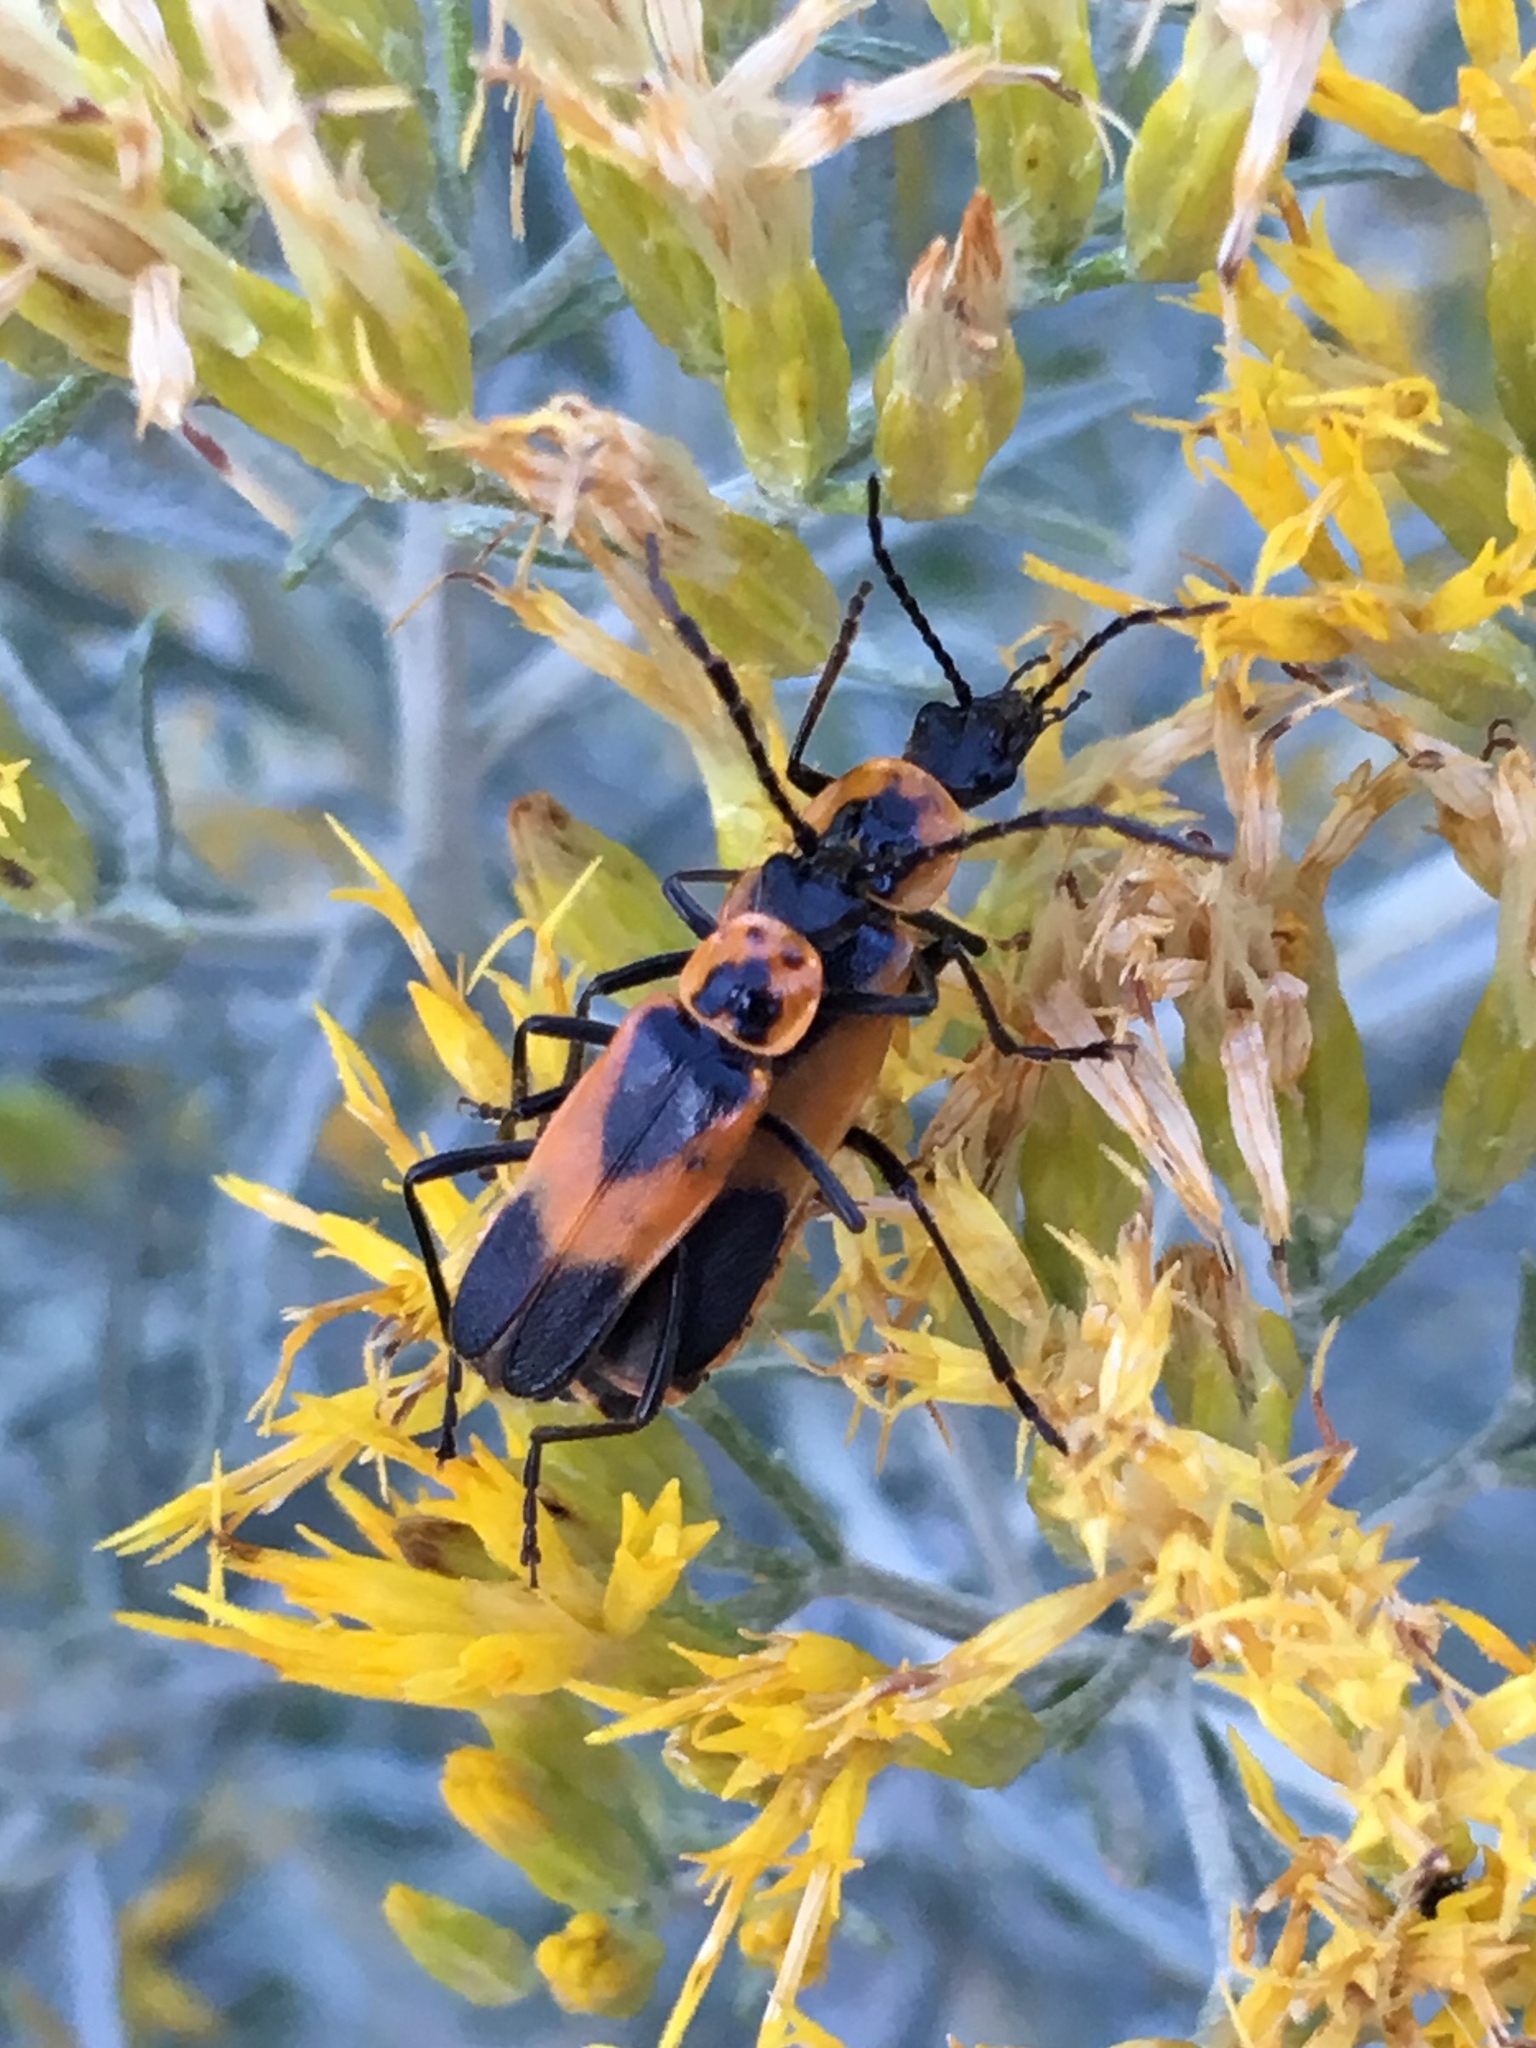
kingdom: Animalia
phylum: Arthropoda
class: Insecta
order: Coleoptera
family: Cantharidae
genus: Chauliognathus
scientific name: Chauliognathus basalis
